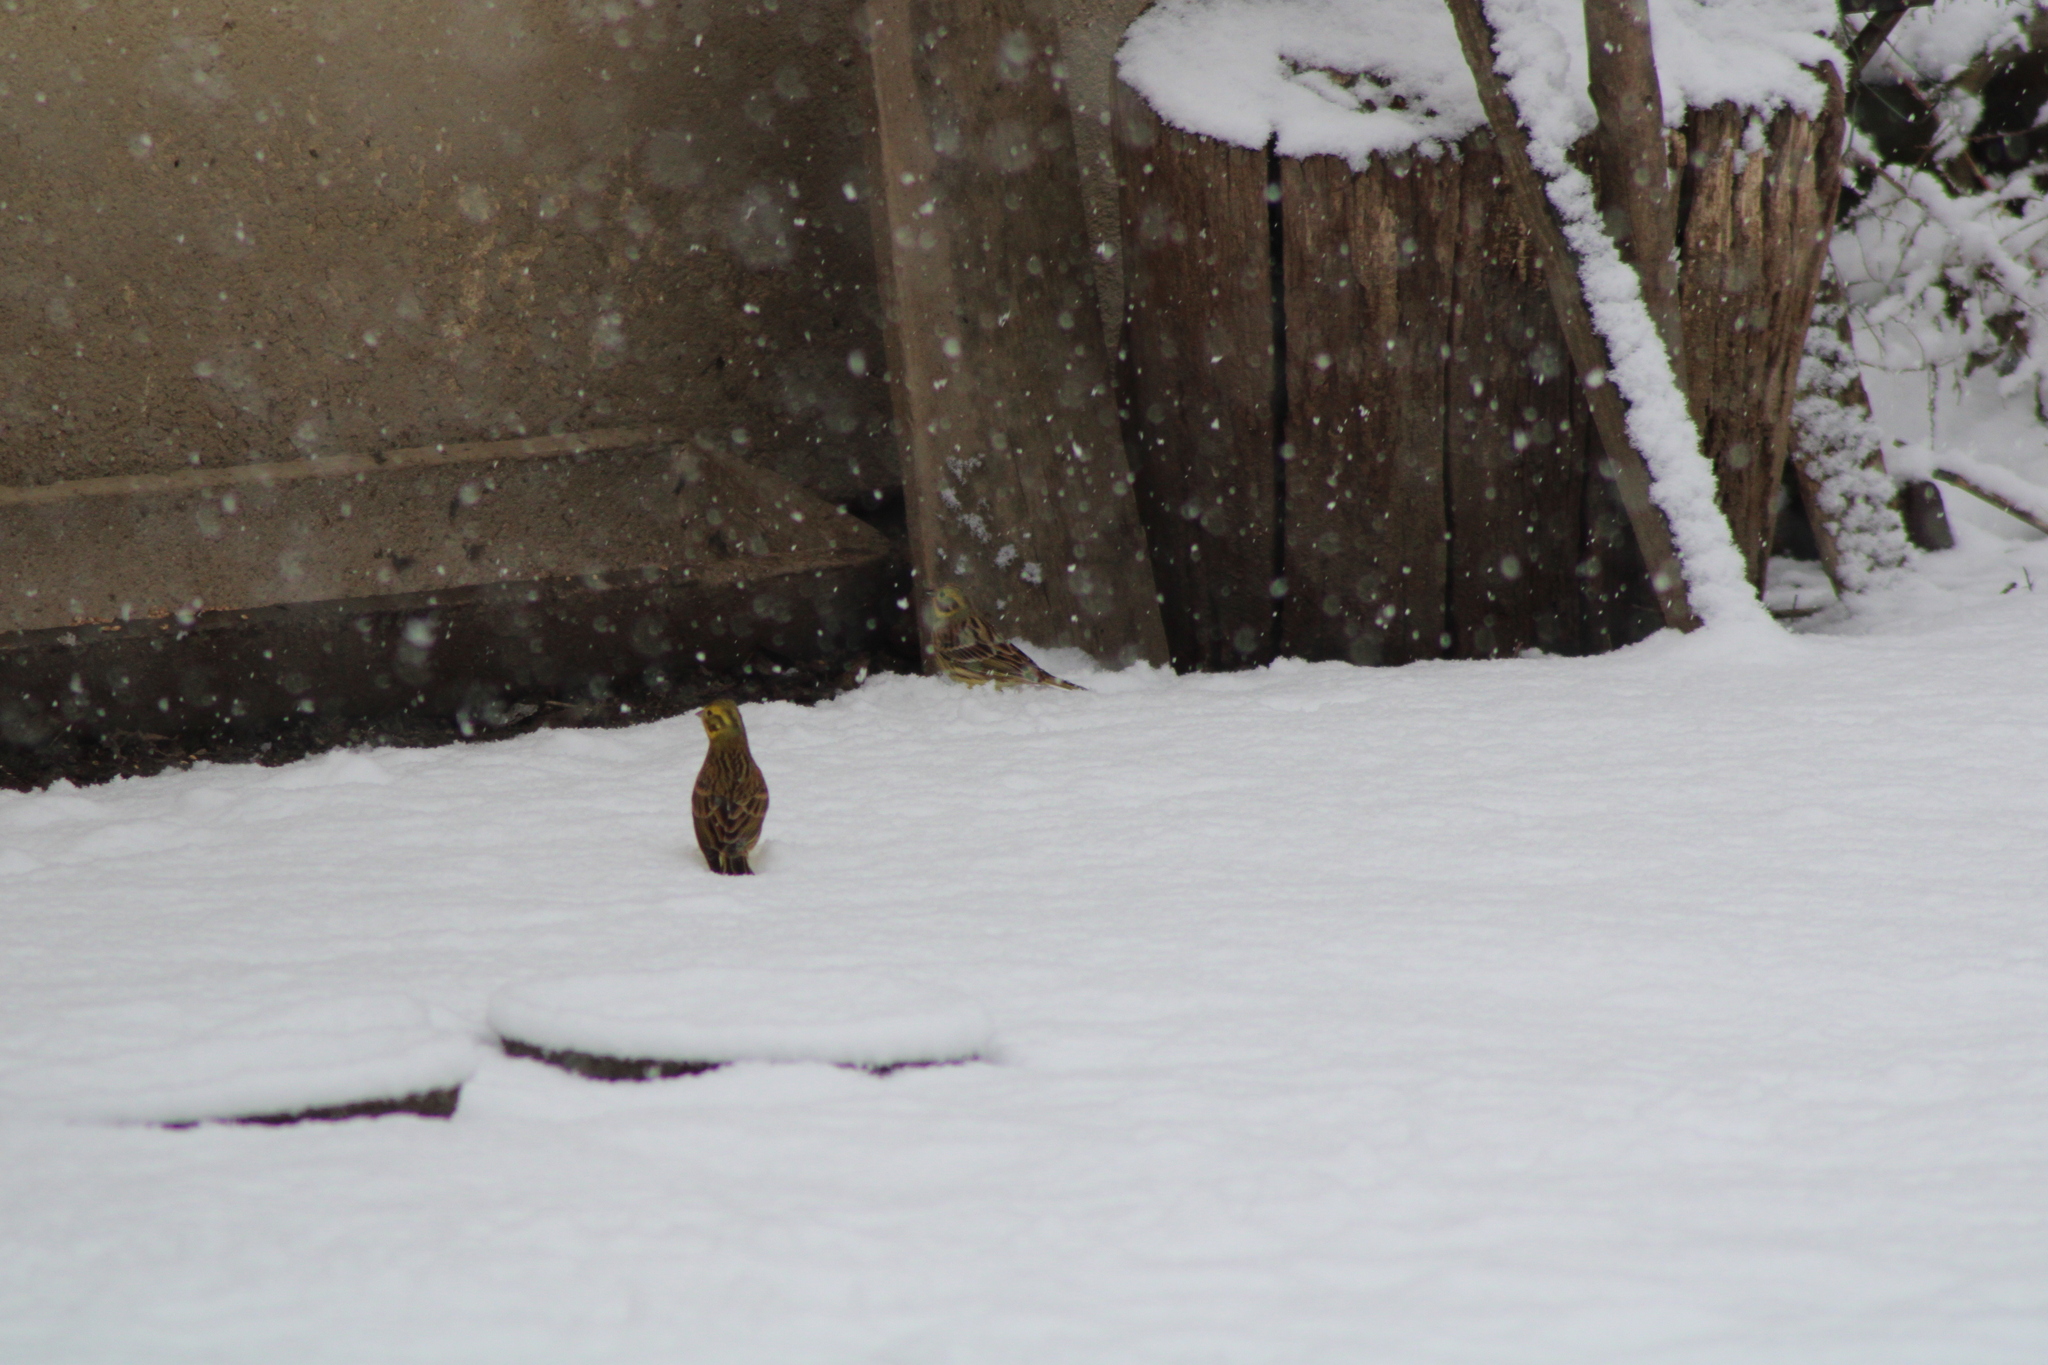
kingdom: Animalia
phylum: Chordata
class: Aves
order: Passeriformes
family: Emberizidae
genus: Emberiza
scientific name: Emberiza citrinella
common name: Yellowhammer
